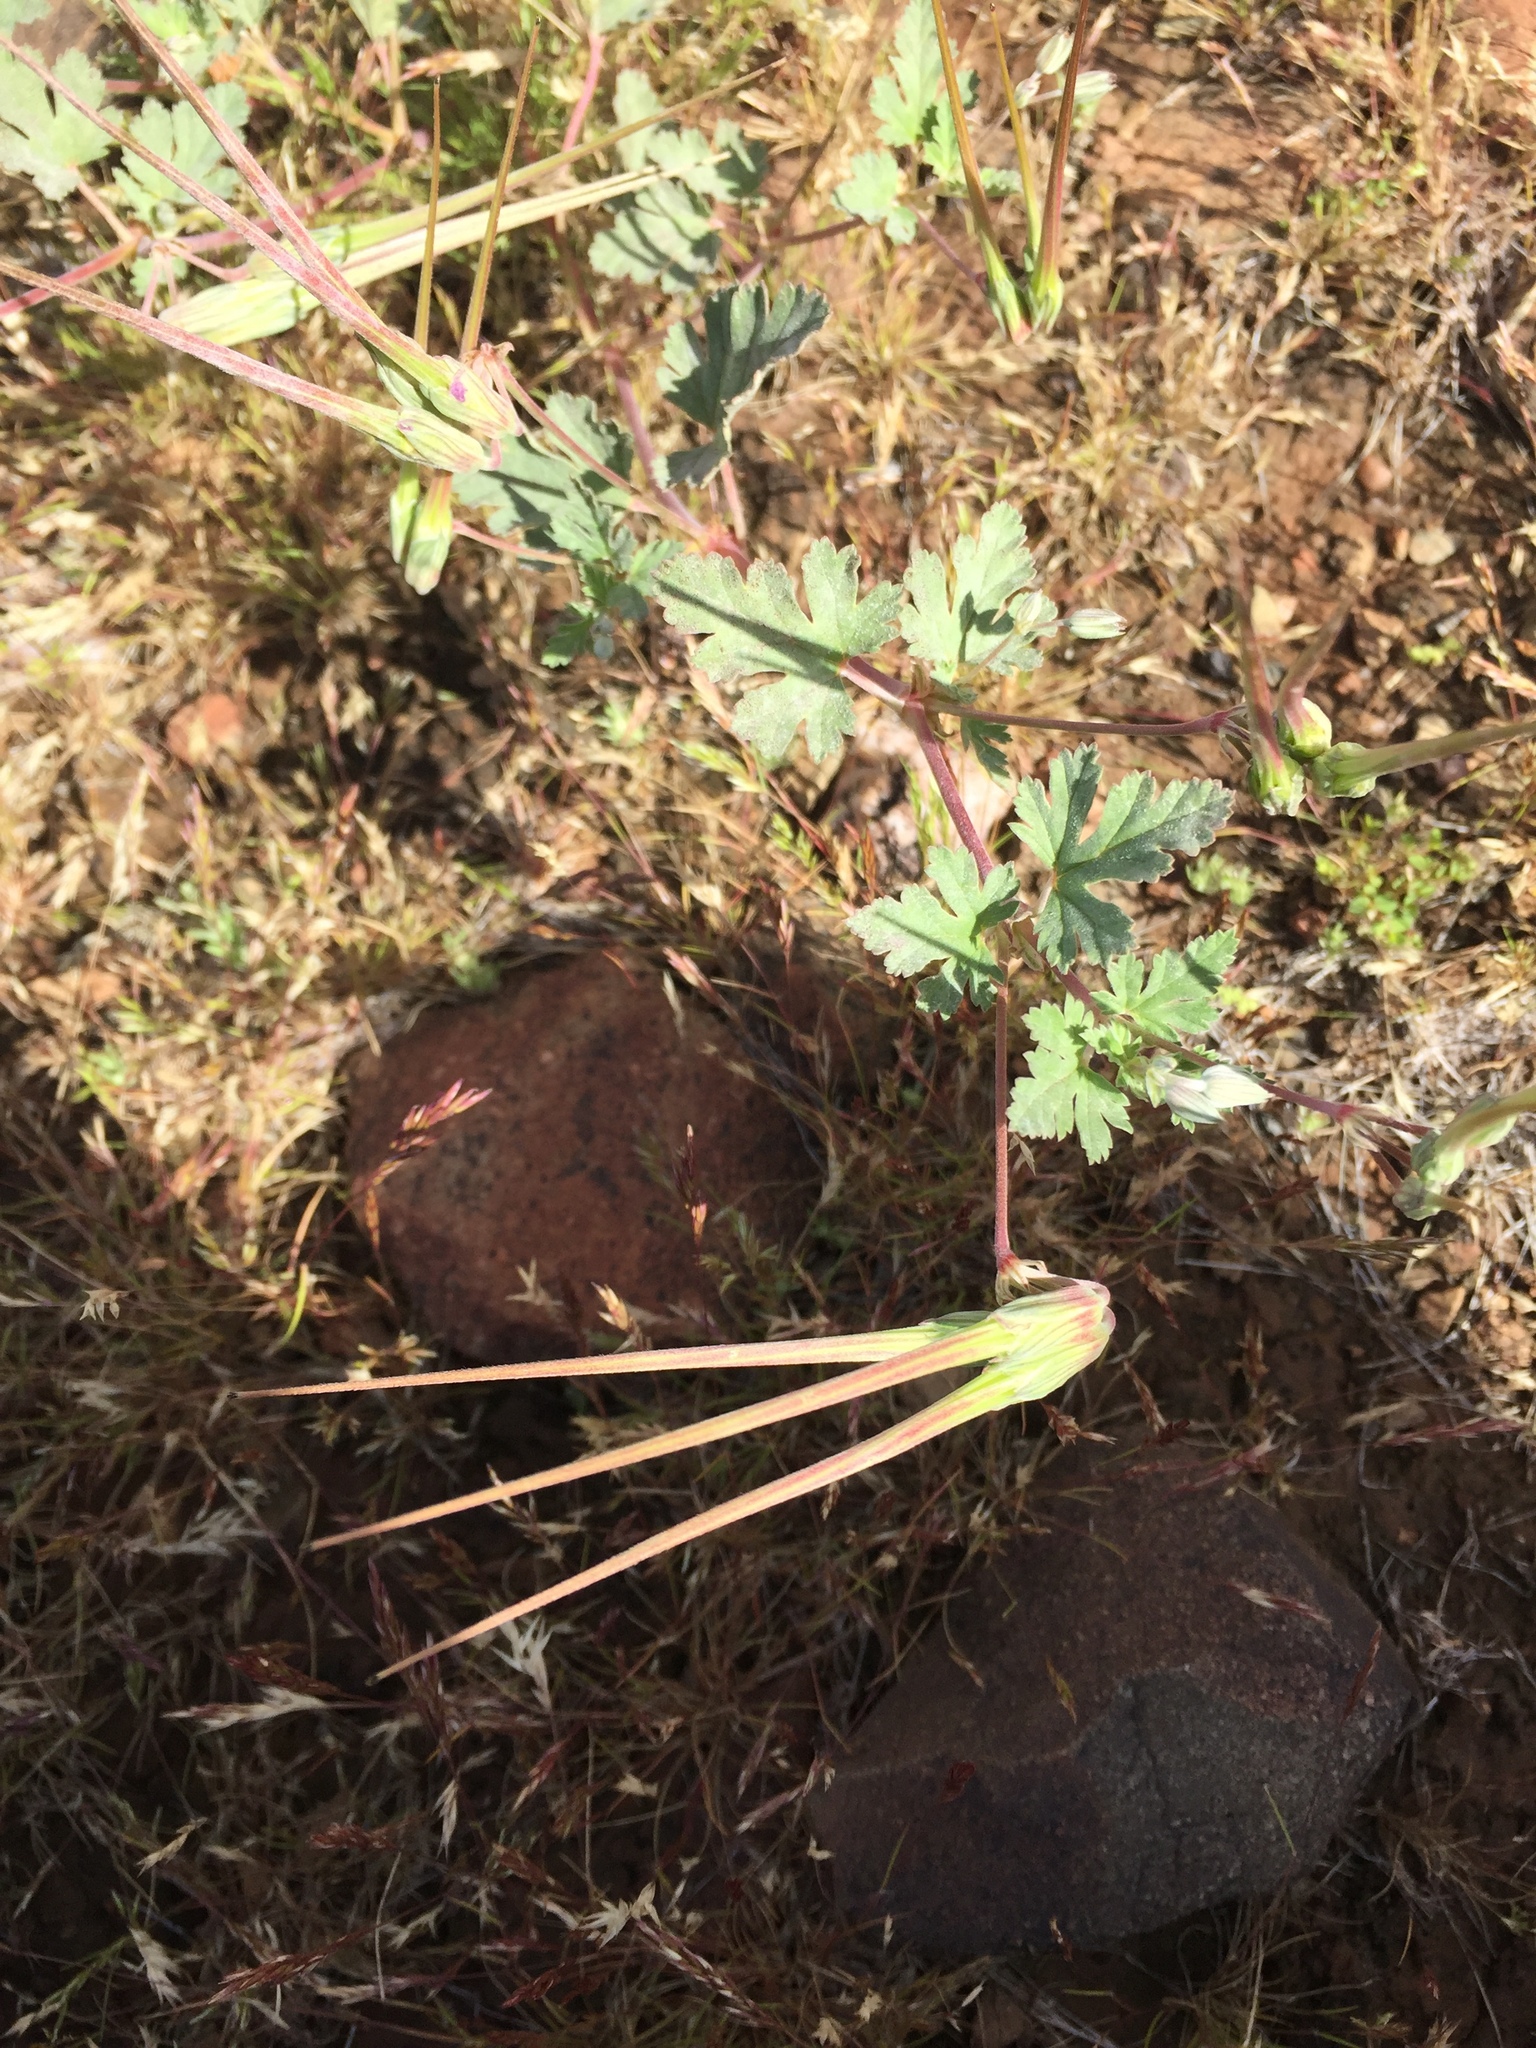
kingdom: Plantae
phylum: Tracheophyta
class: Magnoliopsida
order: Geraniales
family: Geraniaceae
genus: Erodium
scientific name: Erodium texanum
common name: Texas stork's-bill
